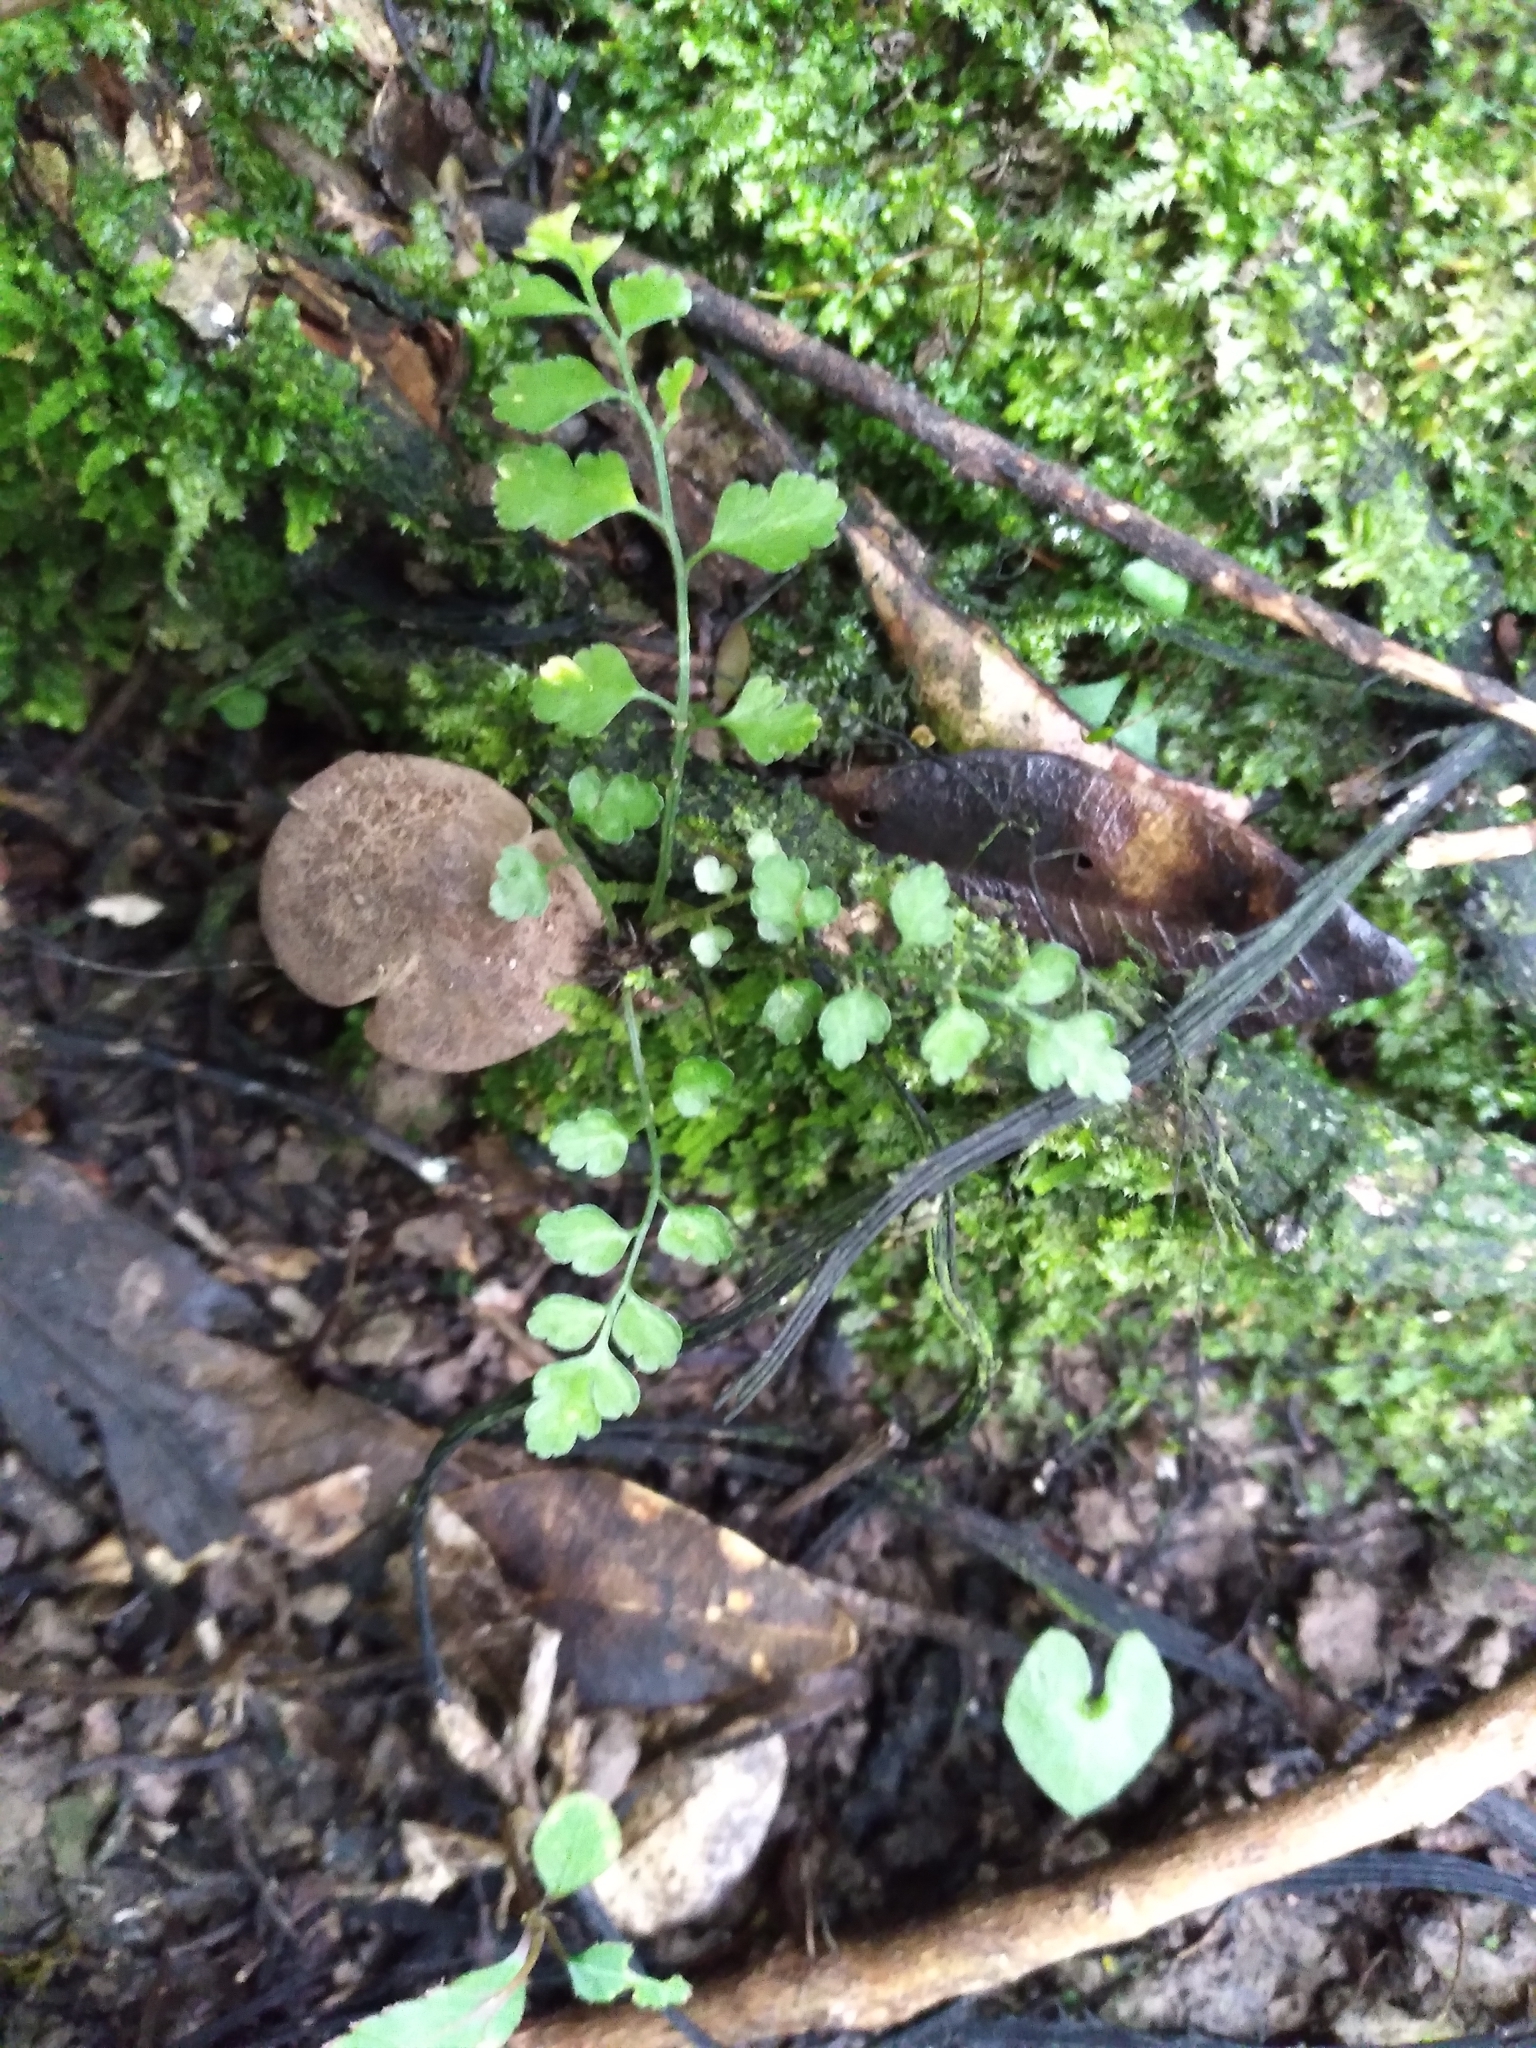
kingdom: Plantae
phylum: Tracheophyta
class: Polypodiopsida
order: Polypodiales
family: Aspleniaceae
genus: Asplenium
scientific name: Asplenium hookerianum
